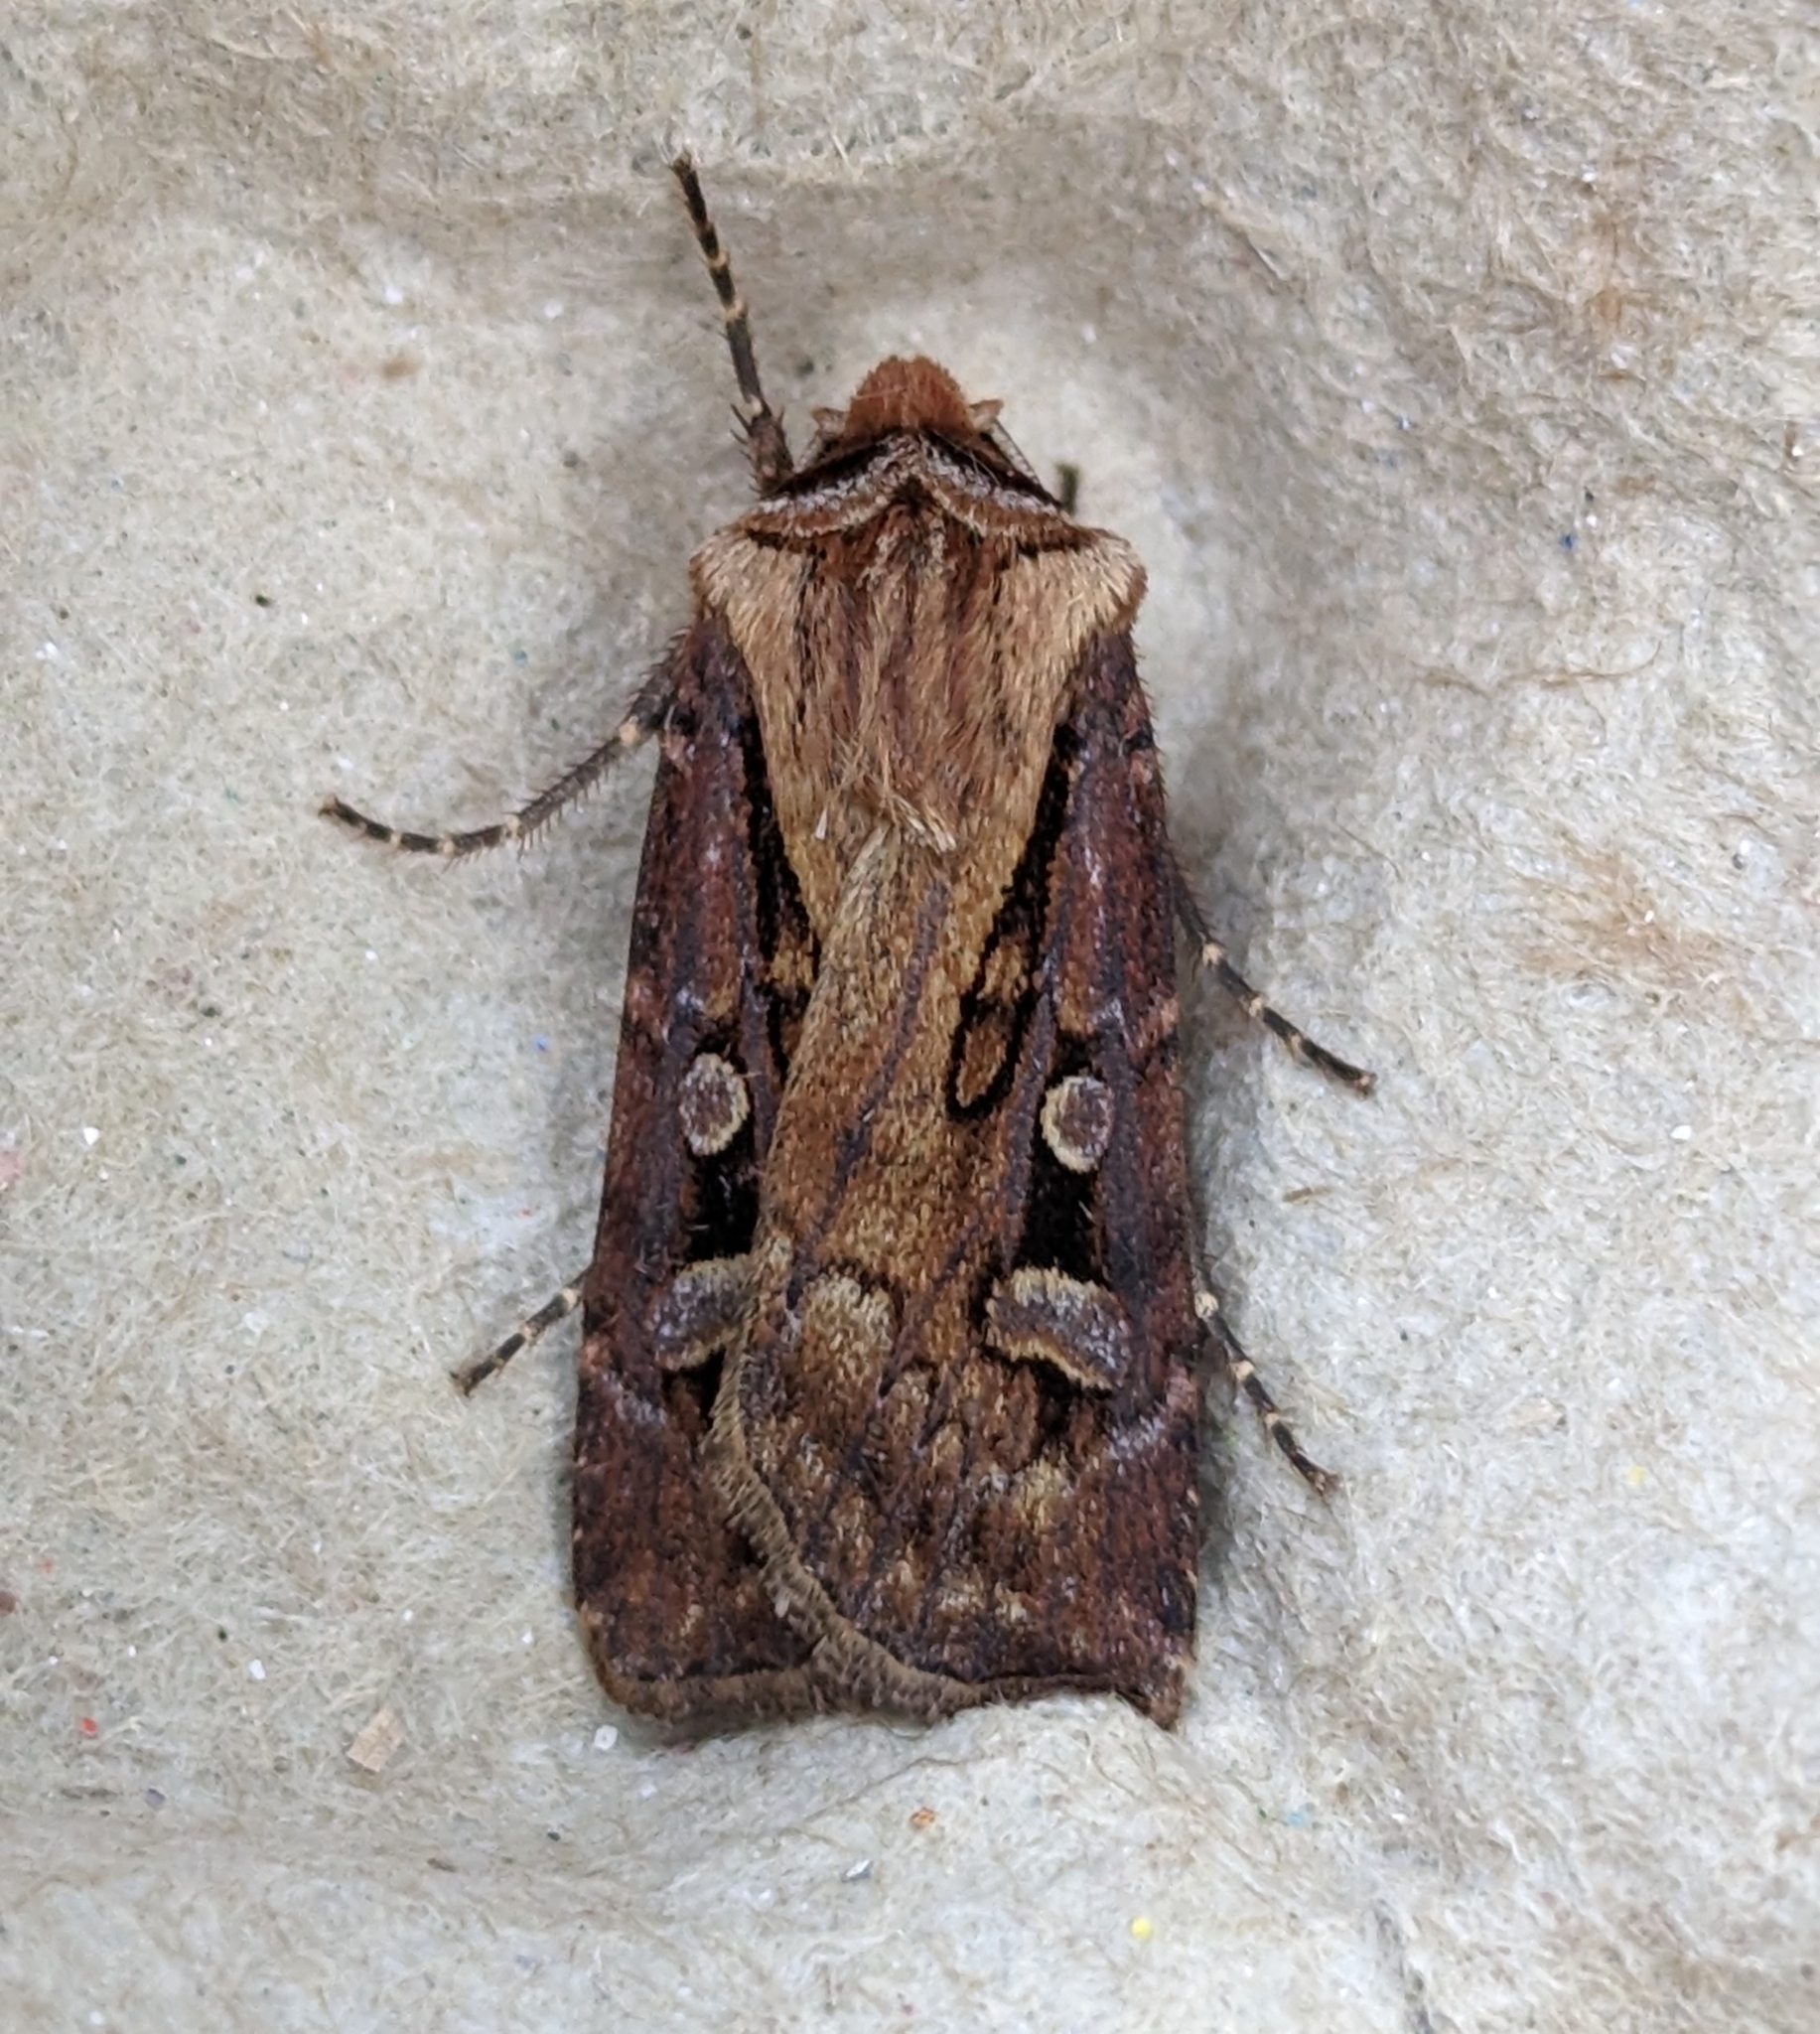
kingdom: Animalia
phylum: Arthropoda
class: Insecta
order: Lepidoptera
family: Noctuidae
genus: Agrotis
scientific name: Agrotis vancouverensis
